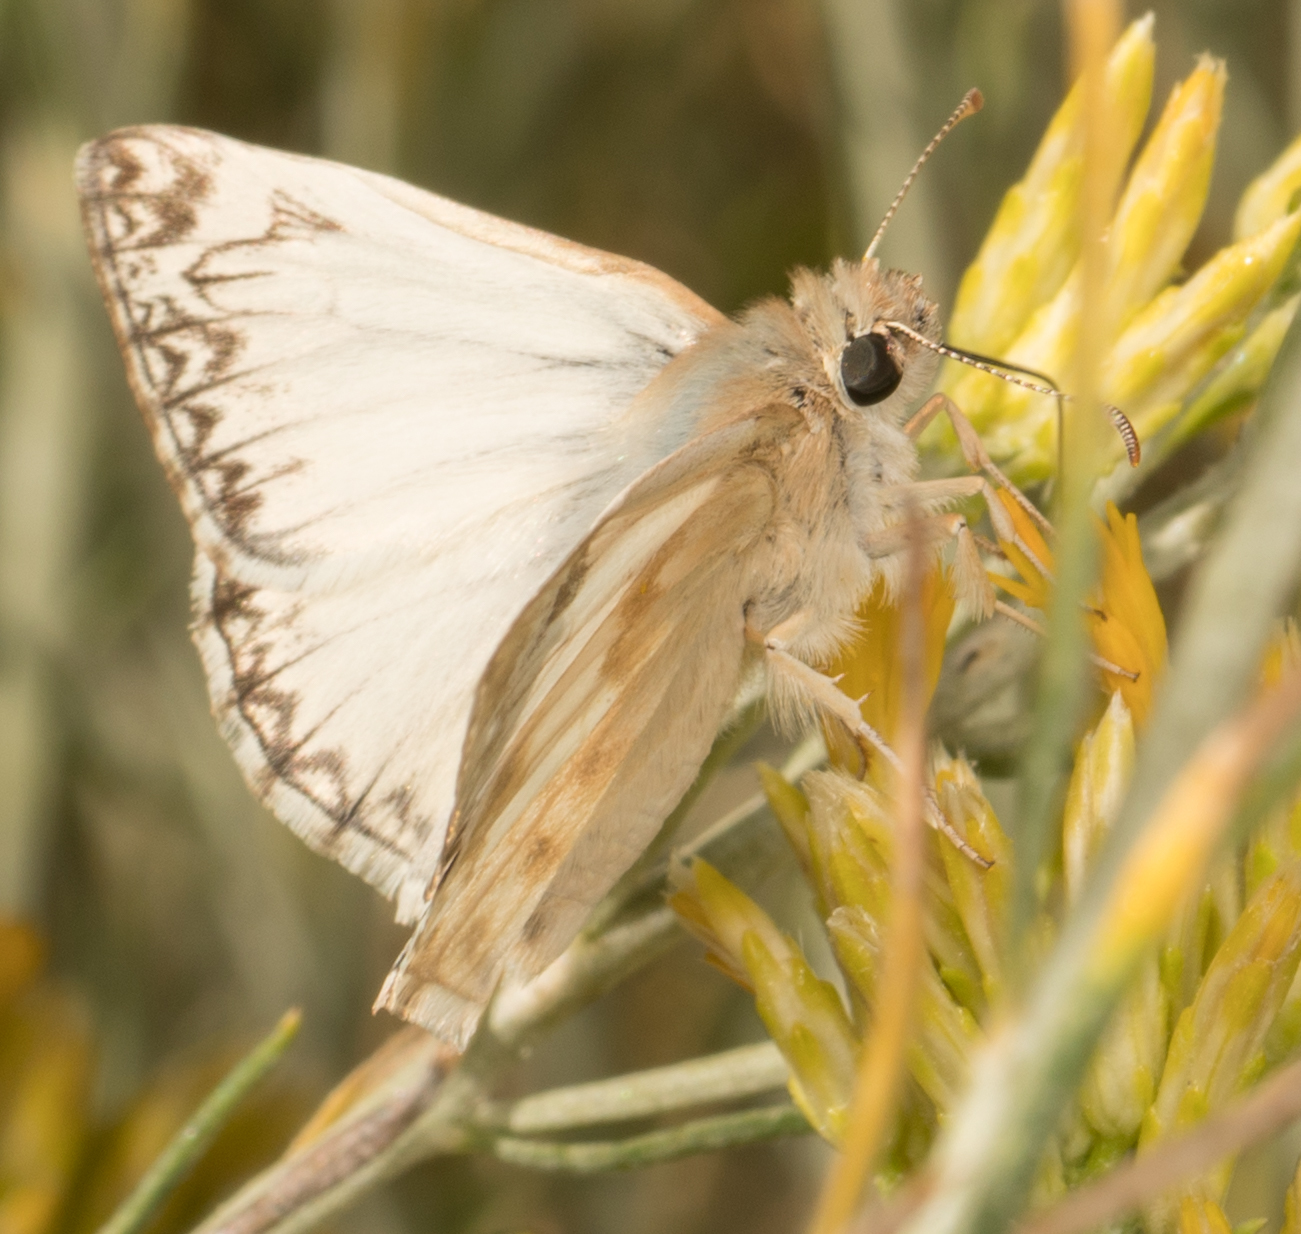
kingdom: Animalia
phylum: Arthropoda
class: Insecta
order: Lepidoptera
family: Hesperiidae
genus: Heliopetes
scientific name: Heliopetes ericetorum
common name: Northern white-skipper
